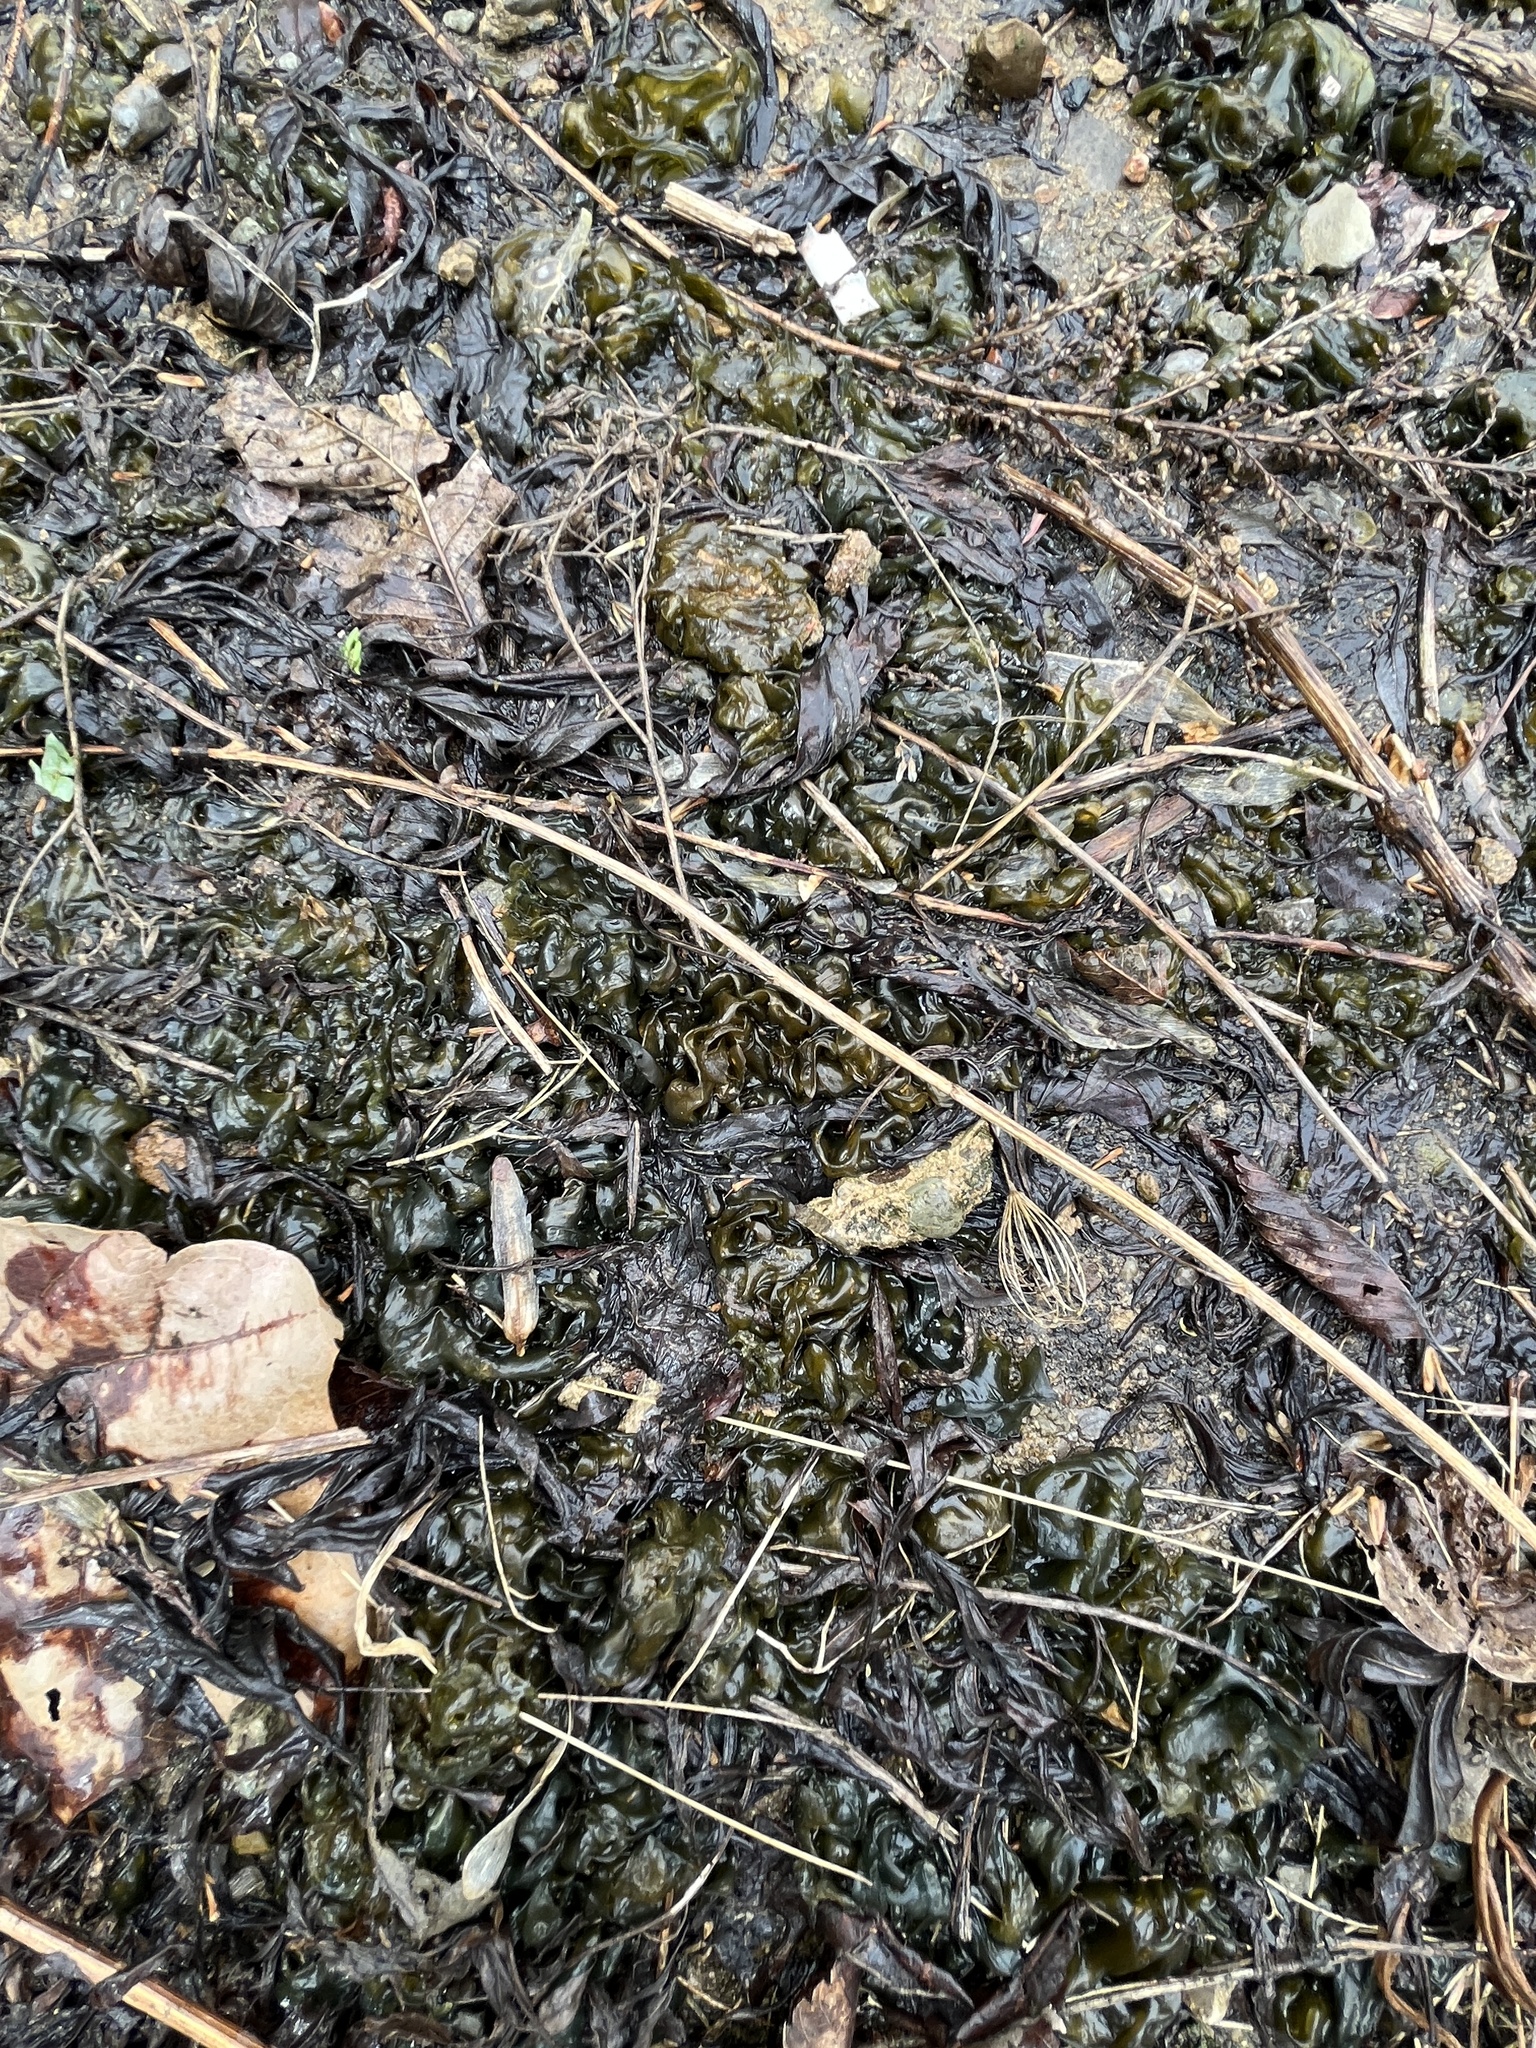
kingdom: Bacteria
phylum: Cyanobacteria
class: Cyanobacteriia
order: Cyanobacteriales
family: Nostocaceae
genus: Nostoc
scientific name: Nostoc commune
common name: Star jelly
